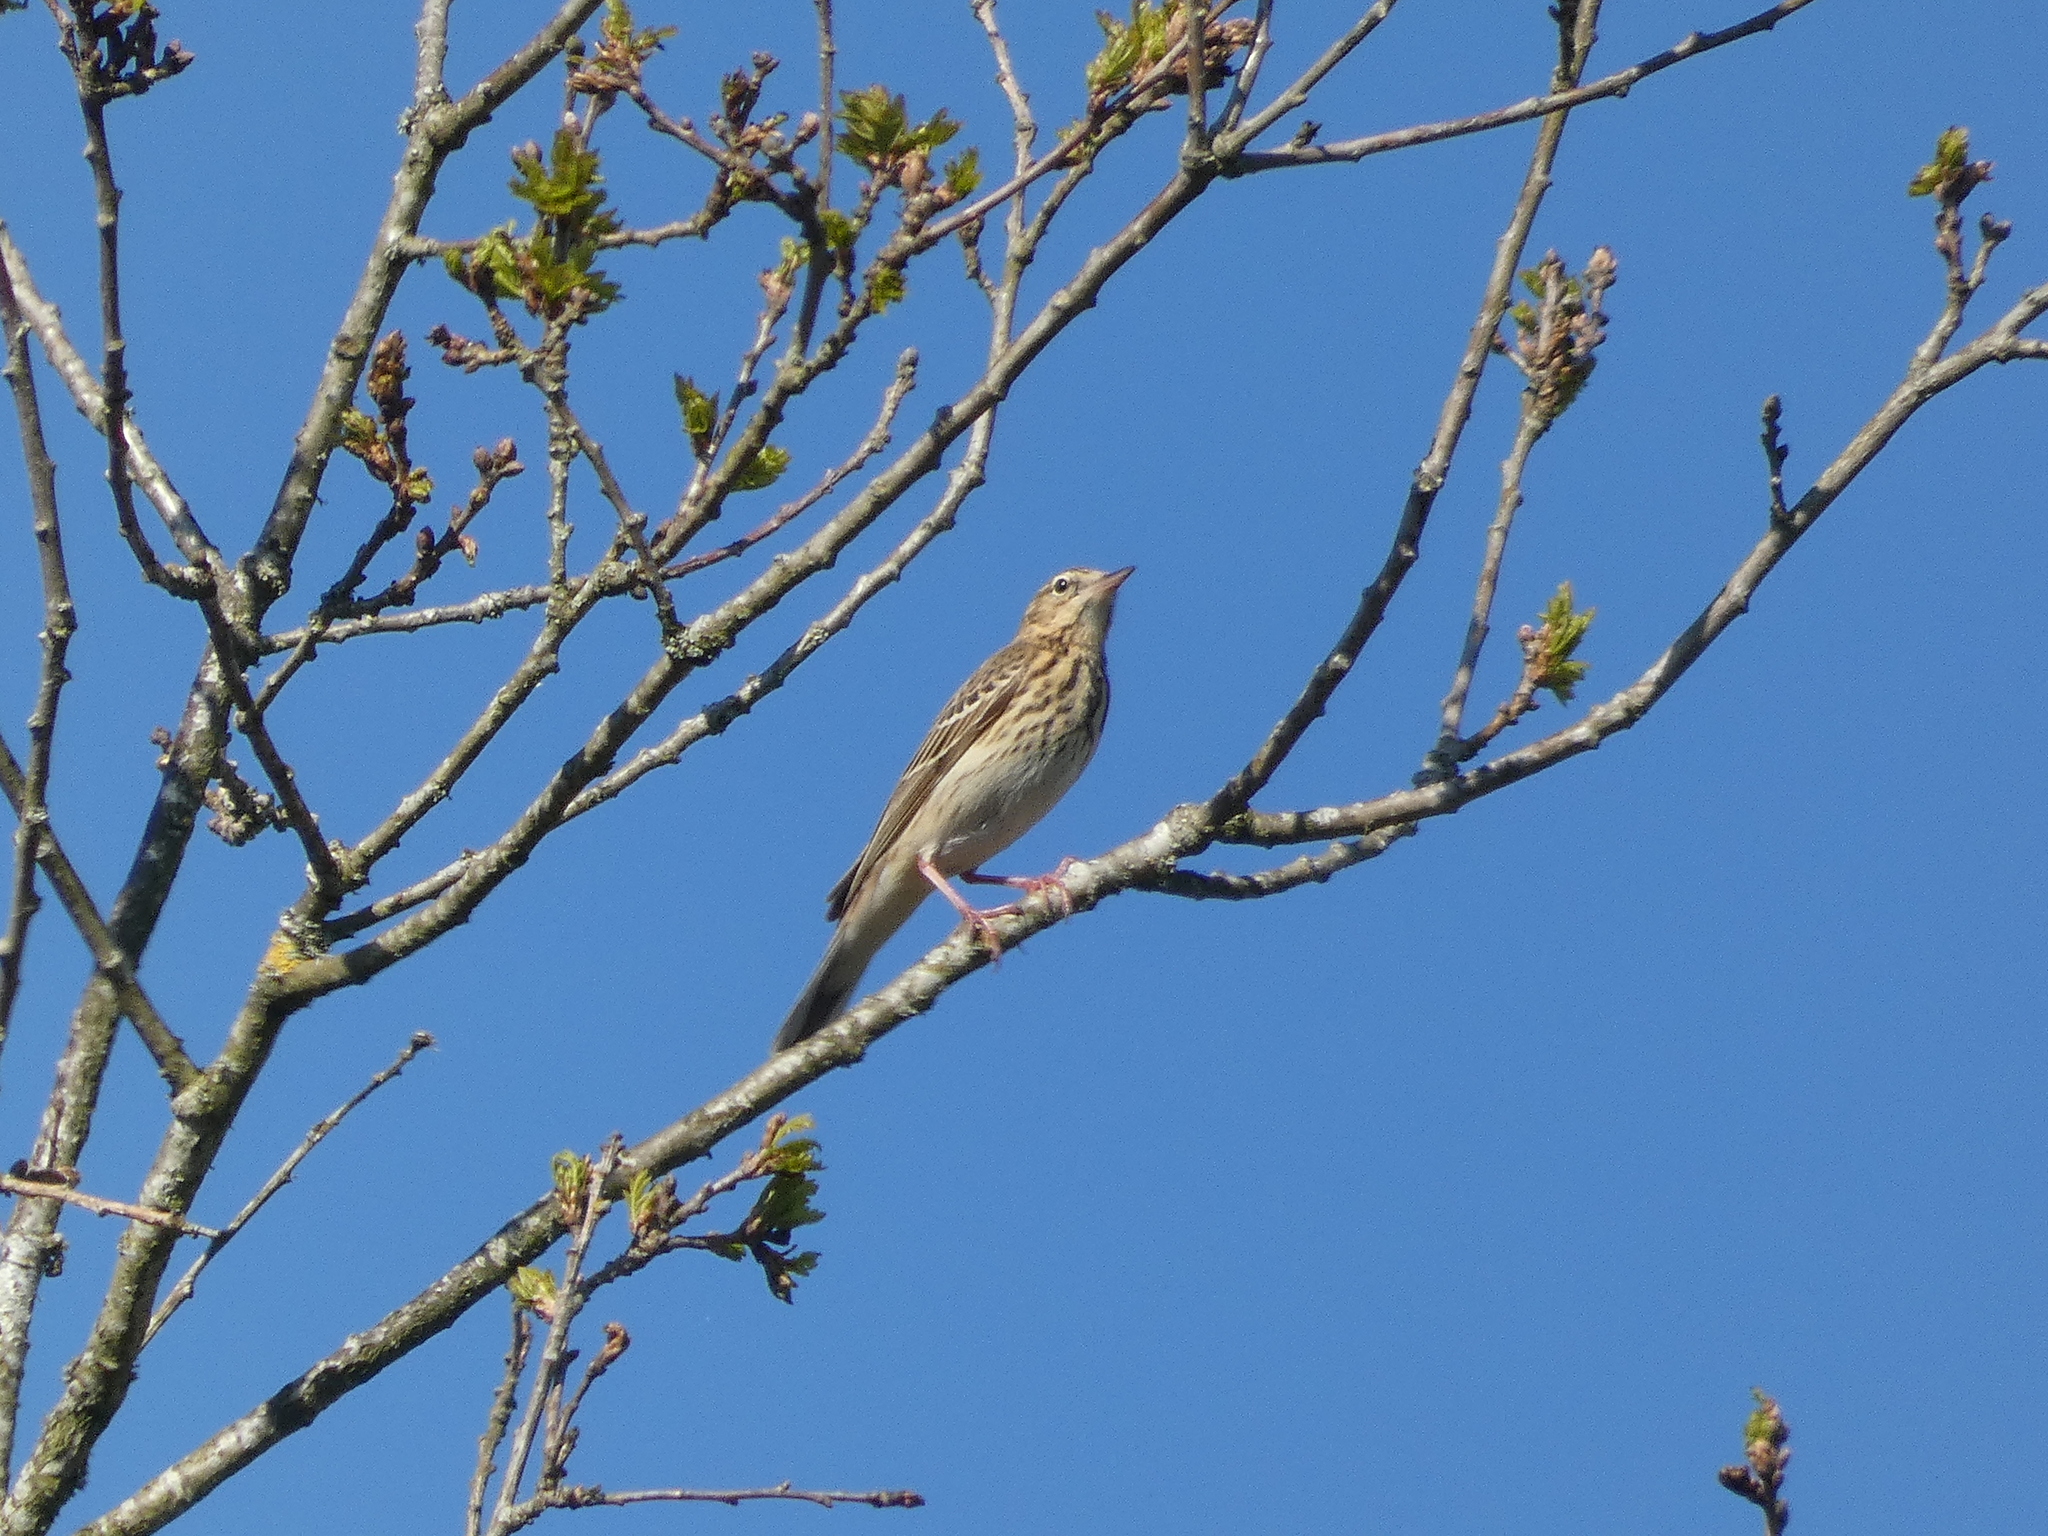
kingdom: Animalia
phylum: Chordata
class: Aves
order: Passeriformes
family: Motacillidae
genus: Anthus
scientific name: Anthus trivialis
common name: Tree pipit
